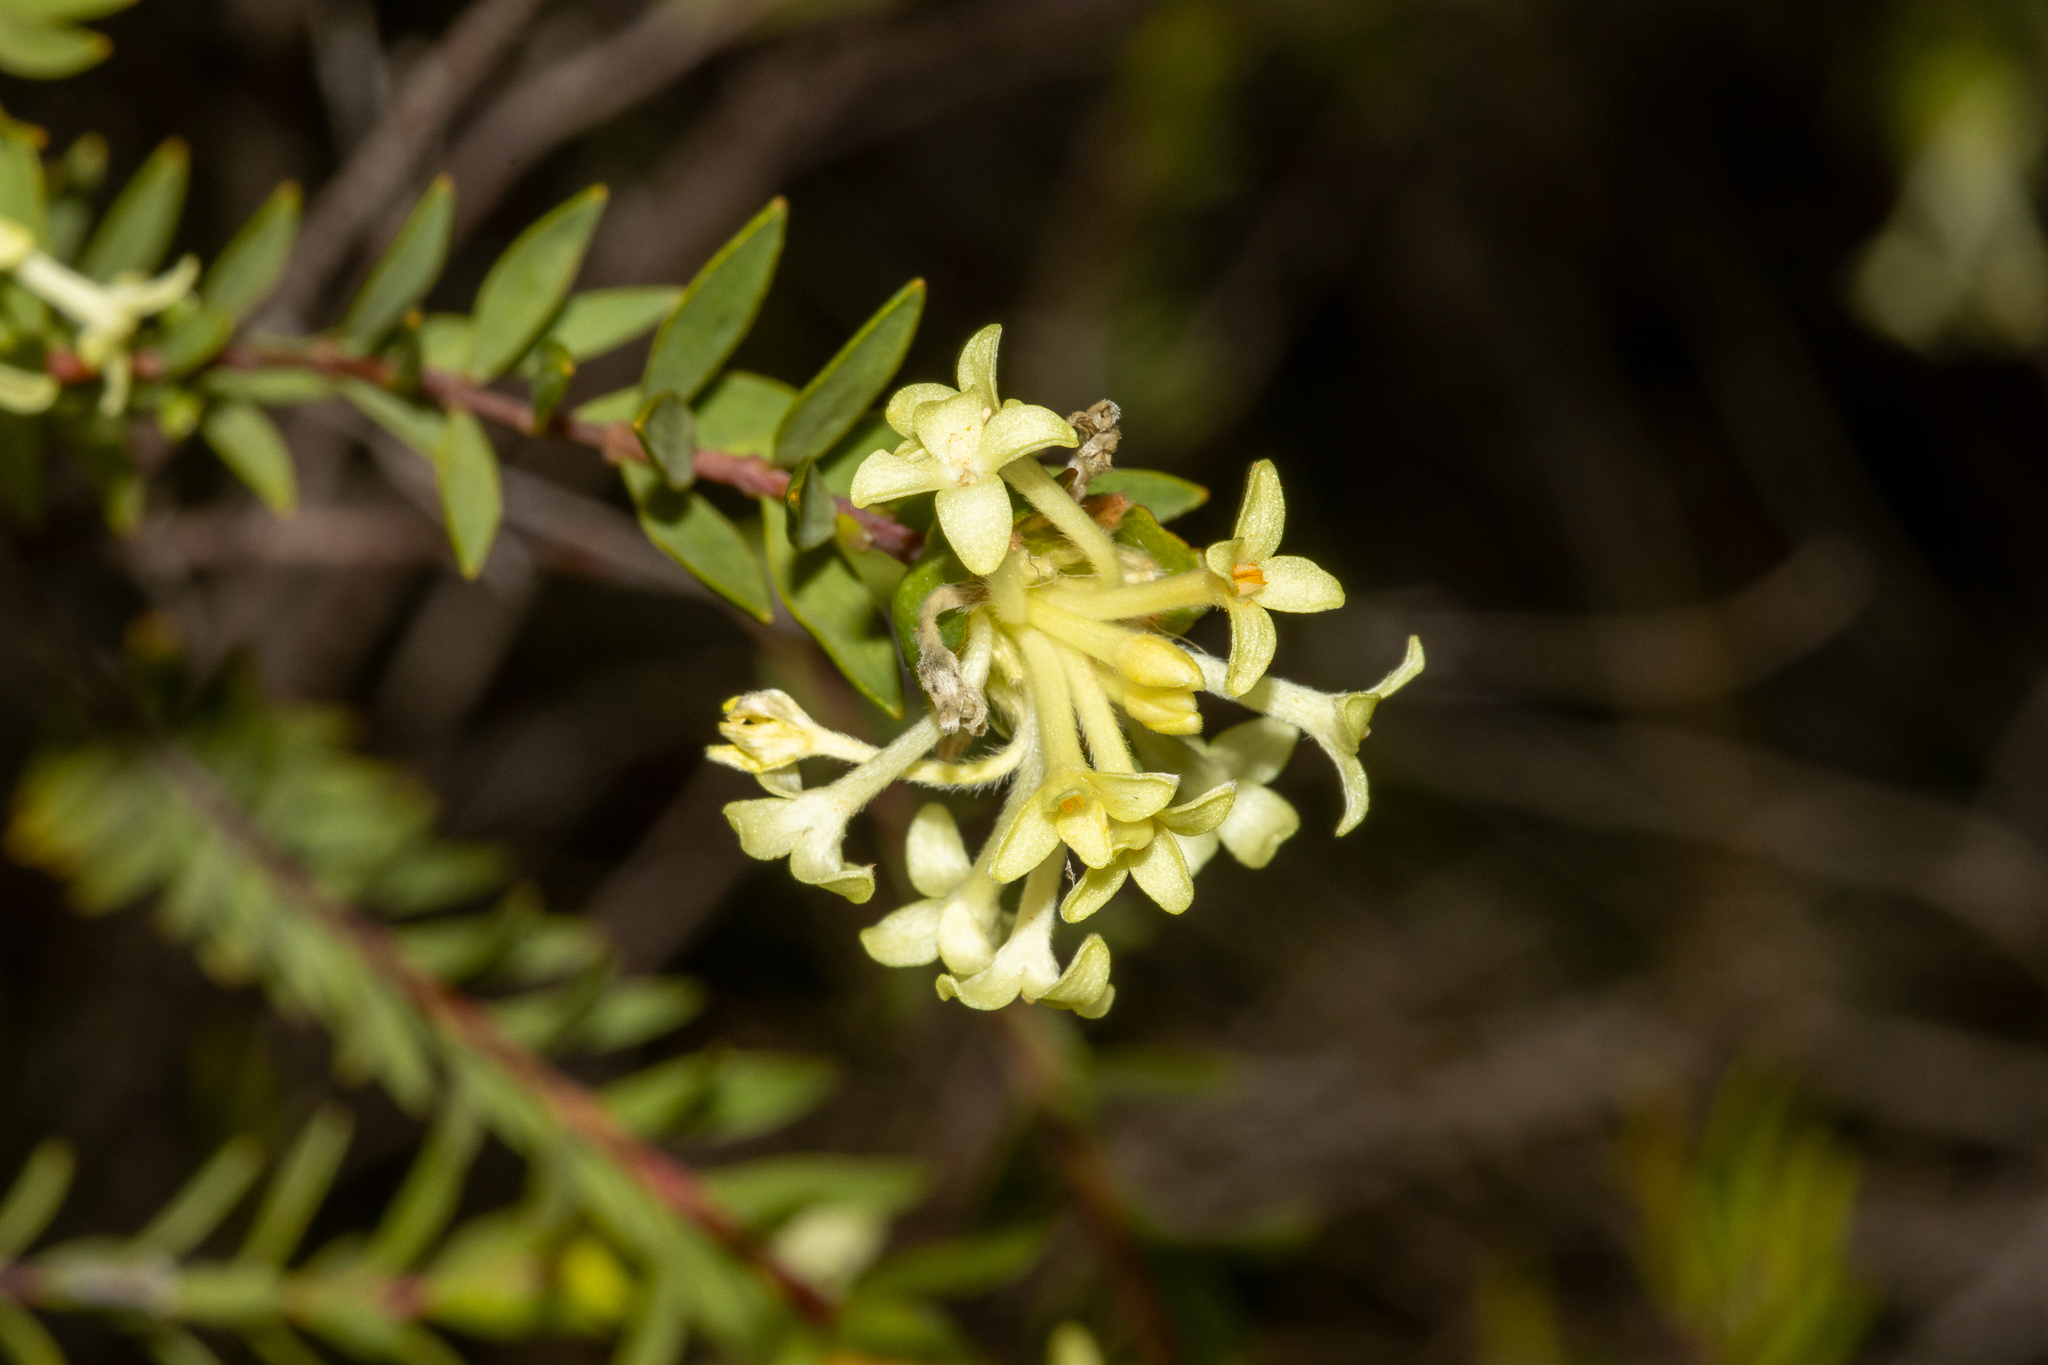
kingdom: Plantae
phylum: Tracheophyta
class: Magnoliopsida
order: Malvales
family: Thymelaeaceae
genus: Pimelea
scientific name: Pimelea stricta
